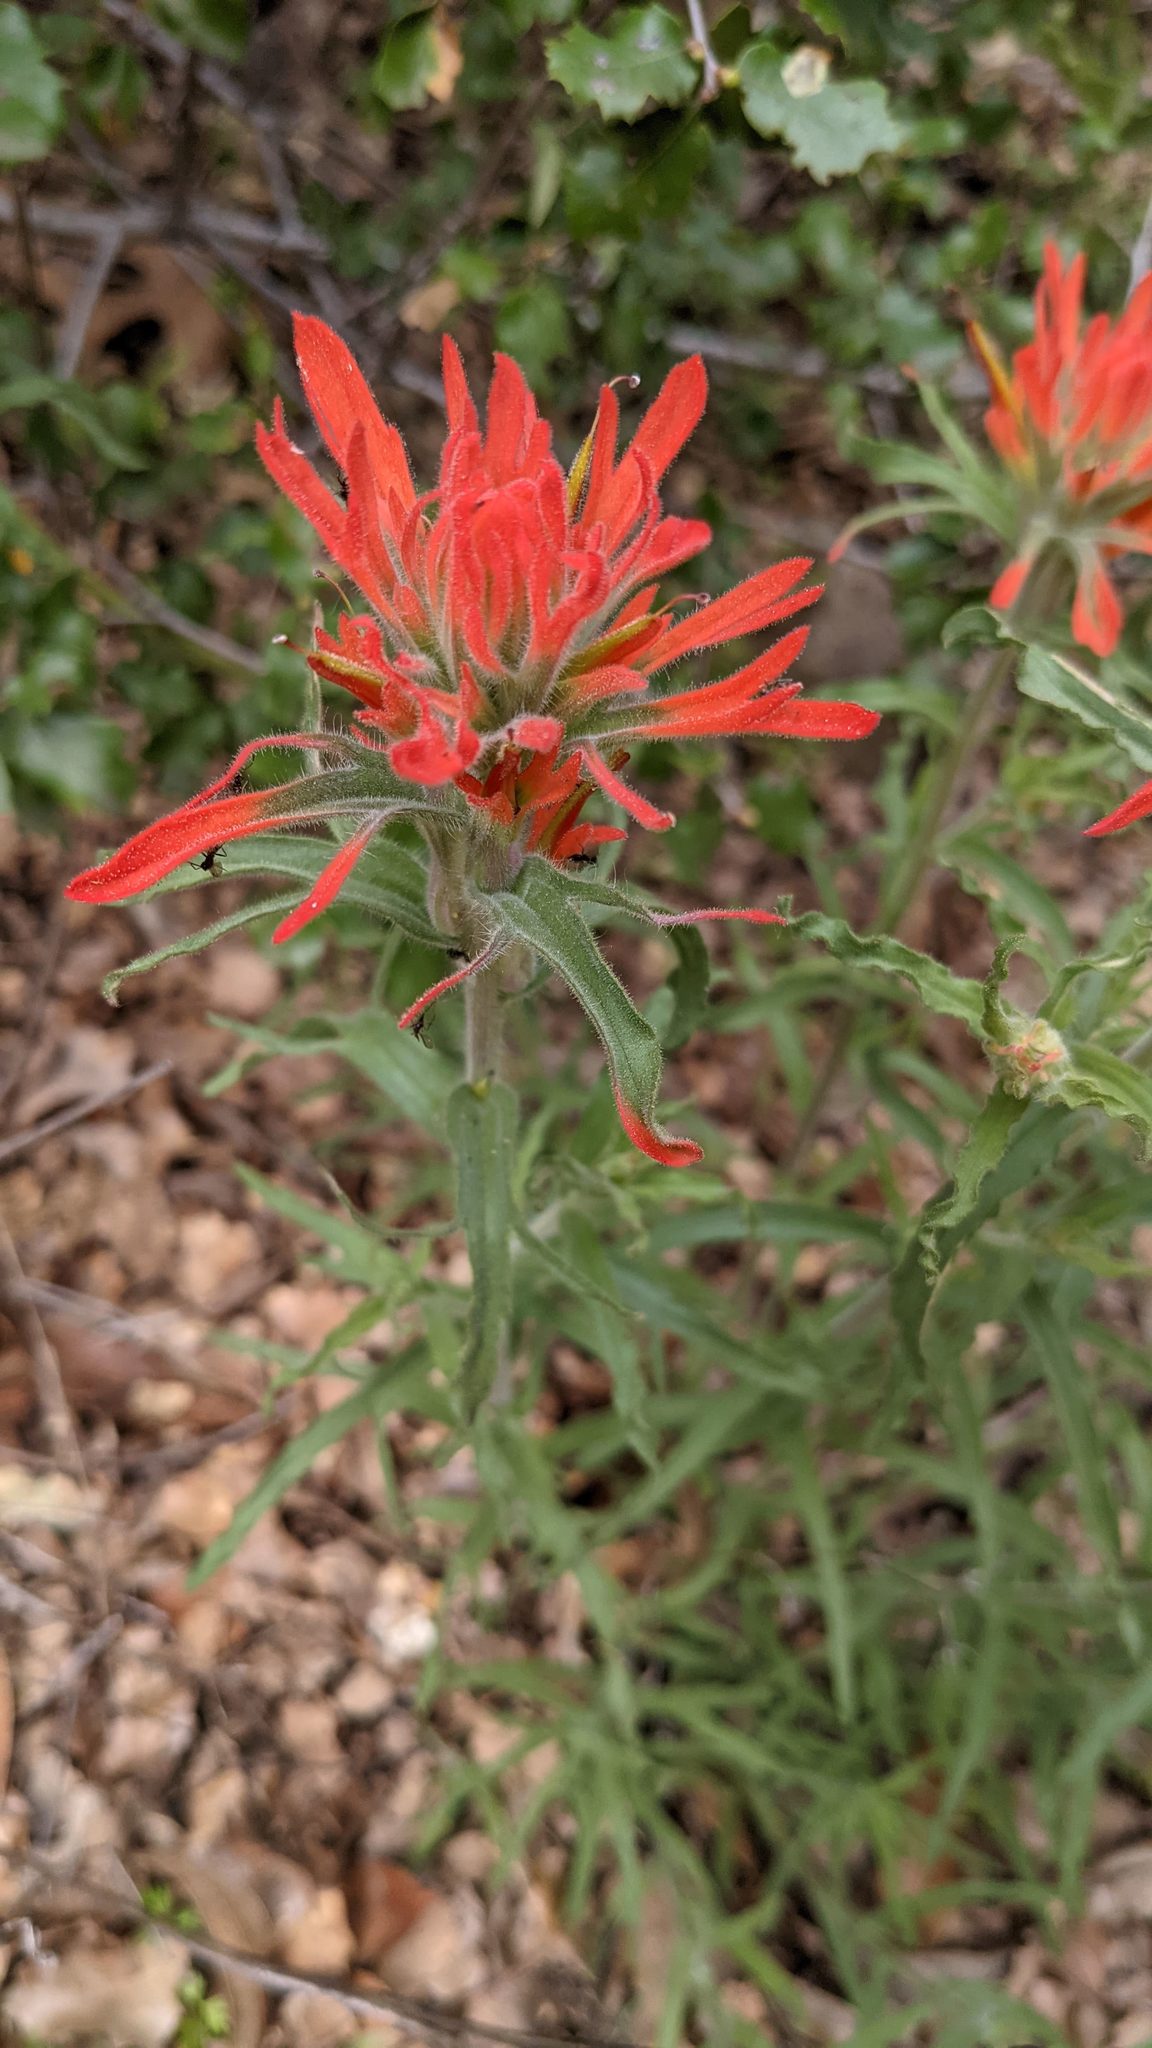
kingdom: Plantae
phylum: Tracheophyta
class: Magnoliopsida
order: Lamiales
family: Orobanchaceae
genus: Castilleja
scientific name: Castilleja applegatei
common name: Wavy-leaf paintbrush
